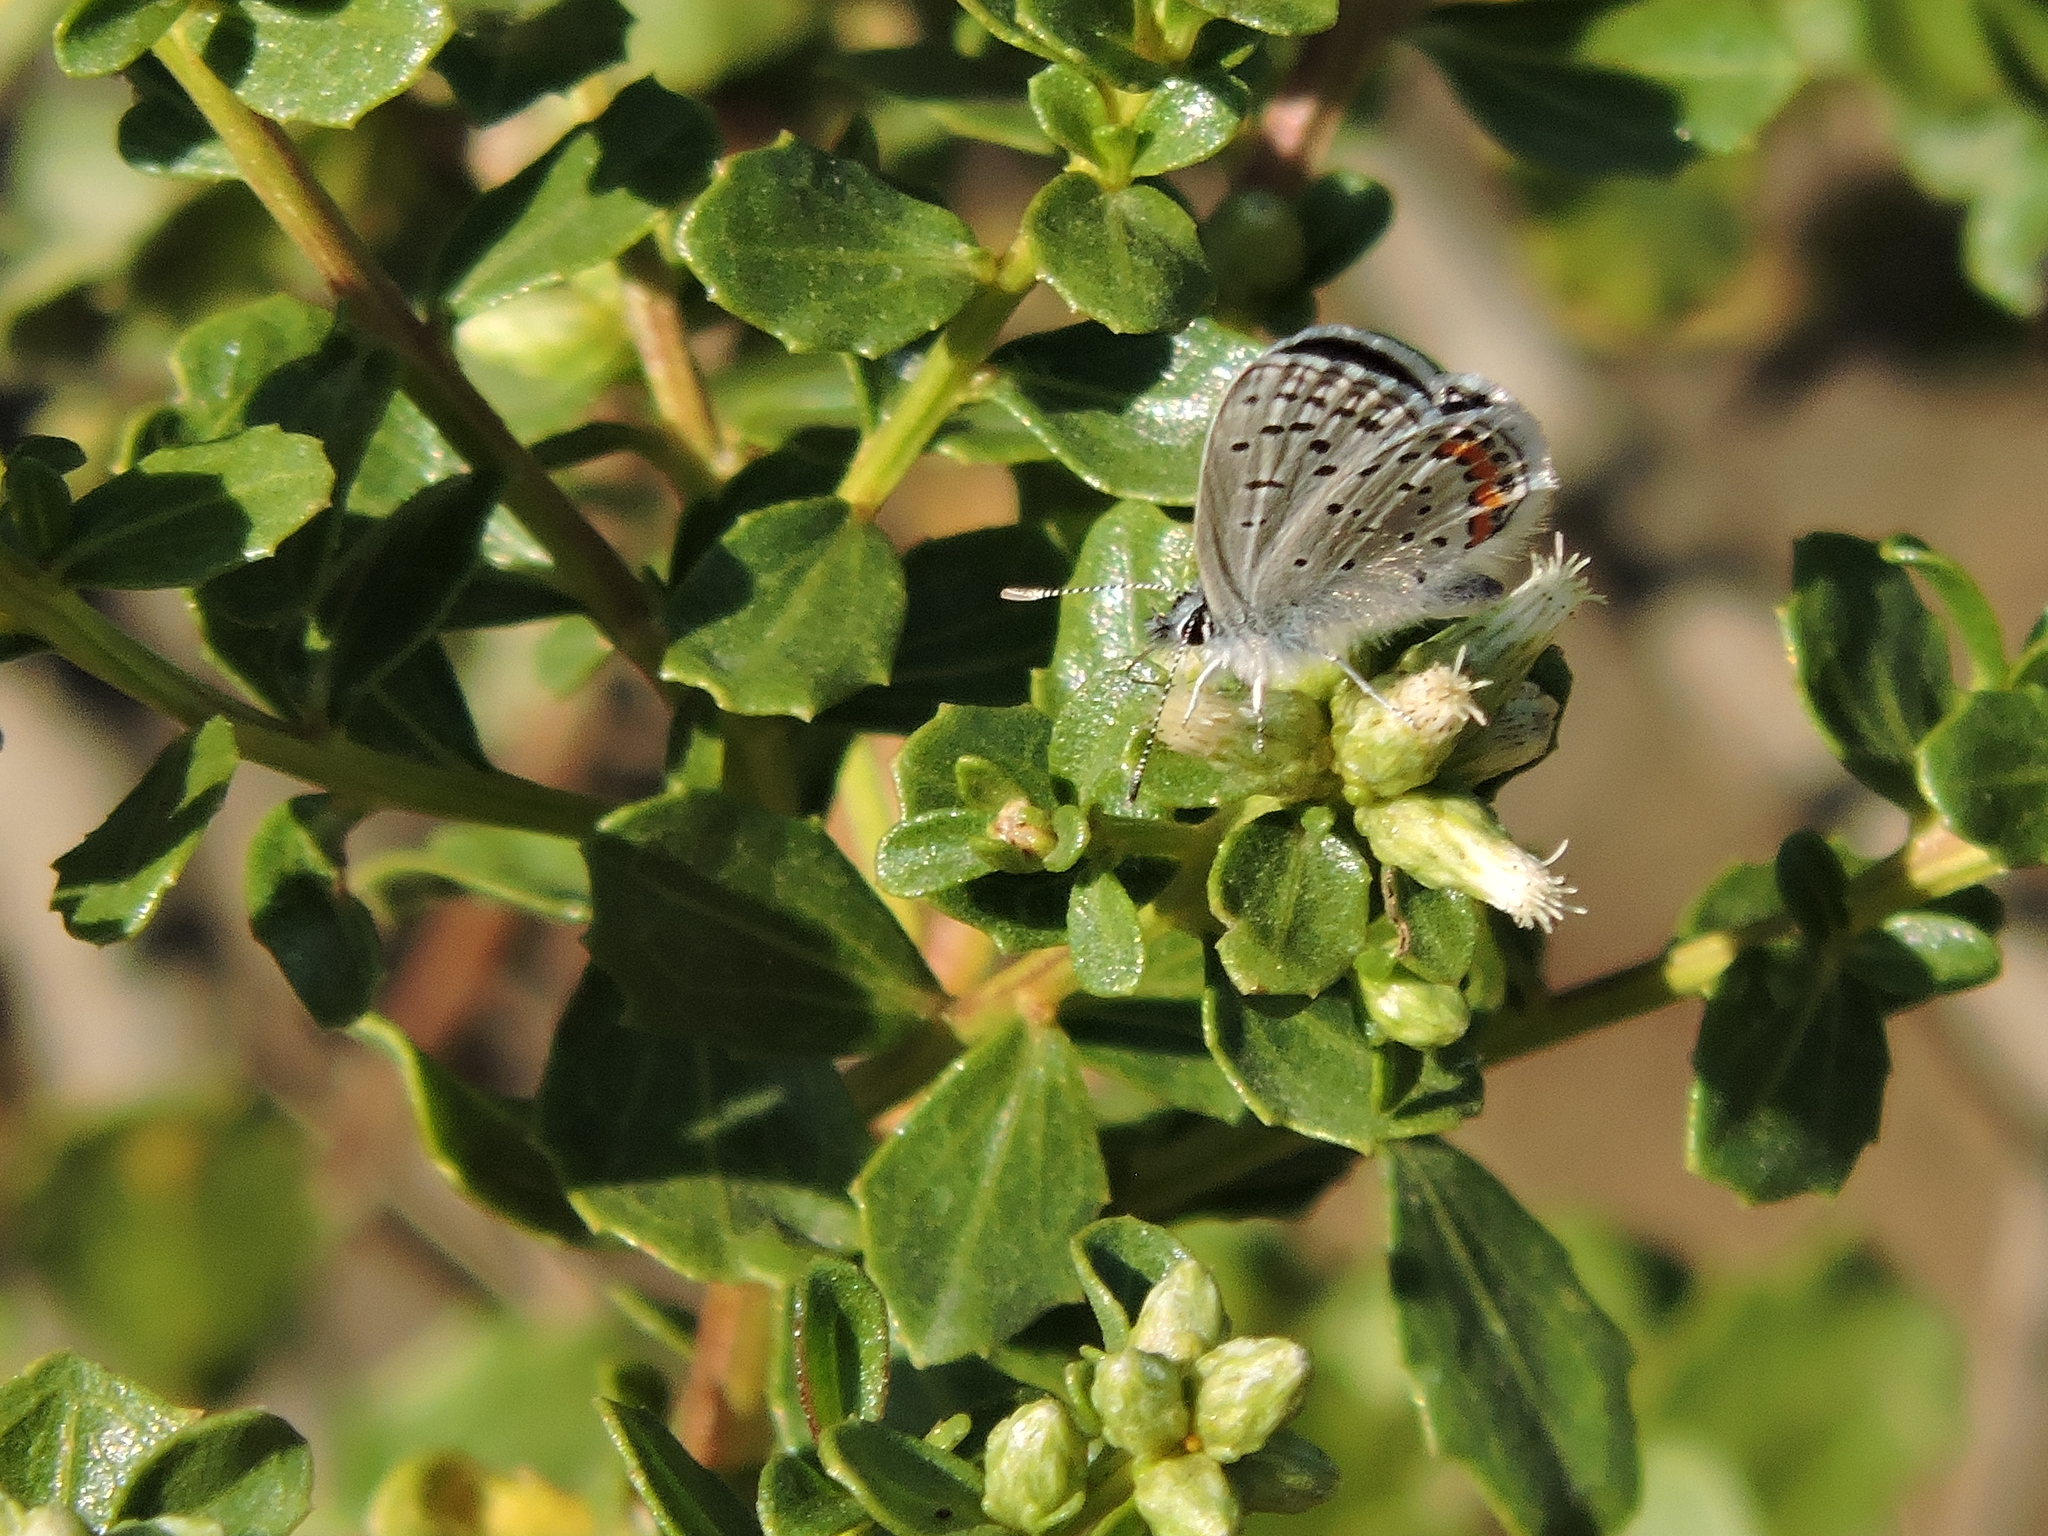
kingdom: Animalia
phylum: Arthropoda
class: Insecta
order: Lepidoptera
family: Lycaenidae
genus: Icaricia
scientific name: Icaricia acmon
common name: Acmon blue
